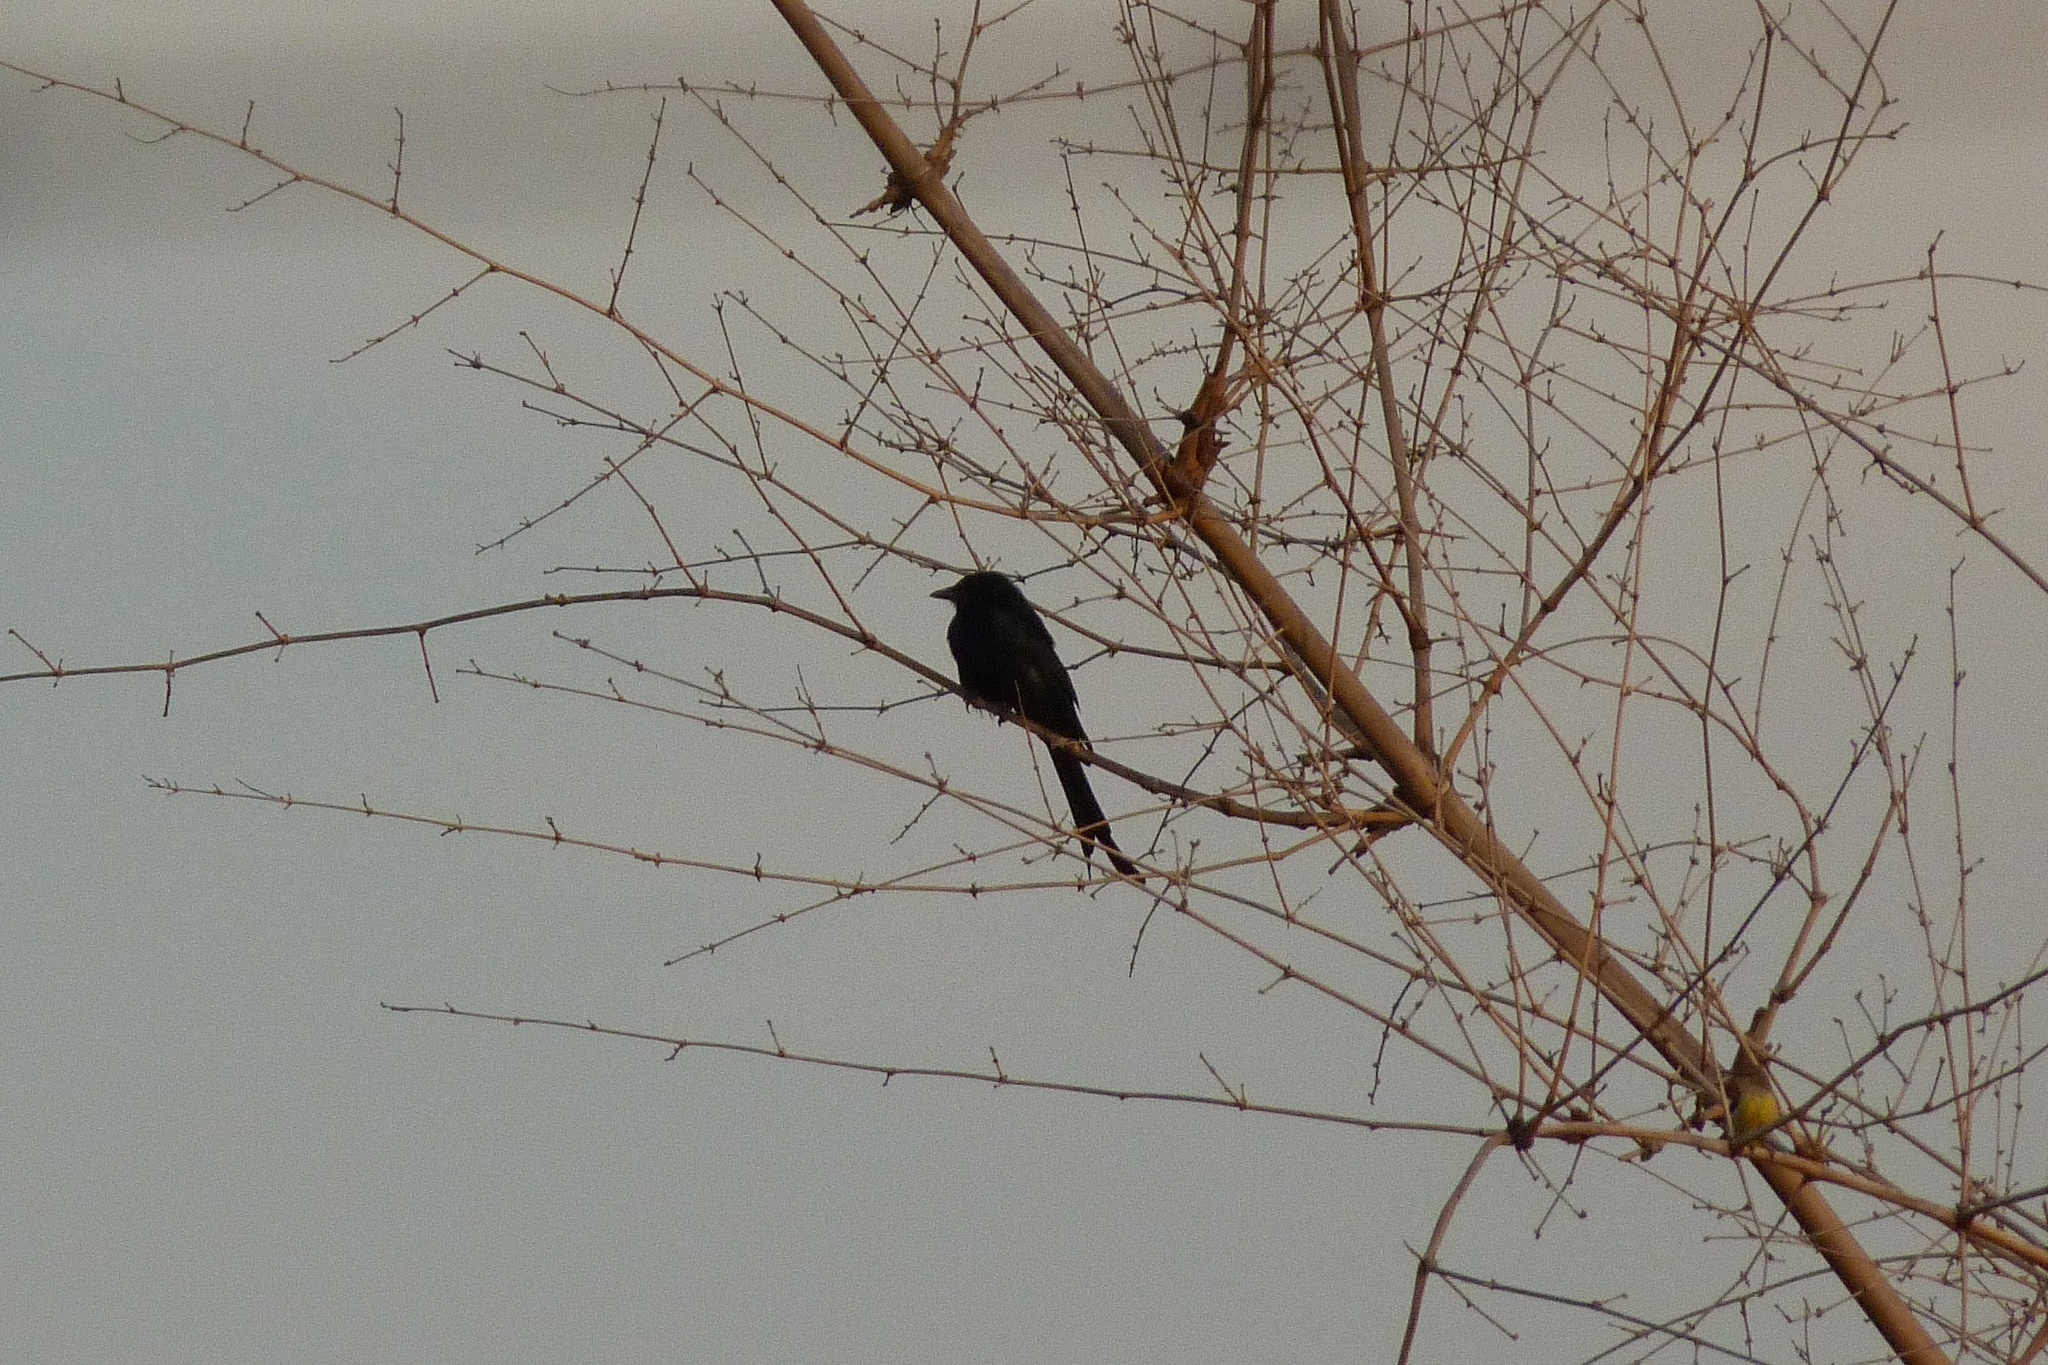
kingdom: Animalia
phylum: Chordata
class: Aves
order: Passeriformes
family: Dicruridae
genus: Dicrurus
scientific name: Dicrurus macrocercus
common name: Black drongo
